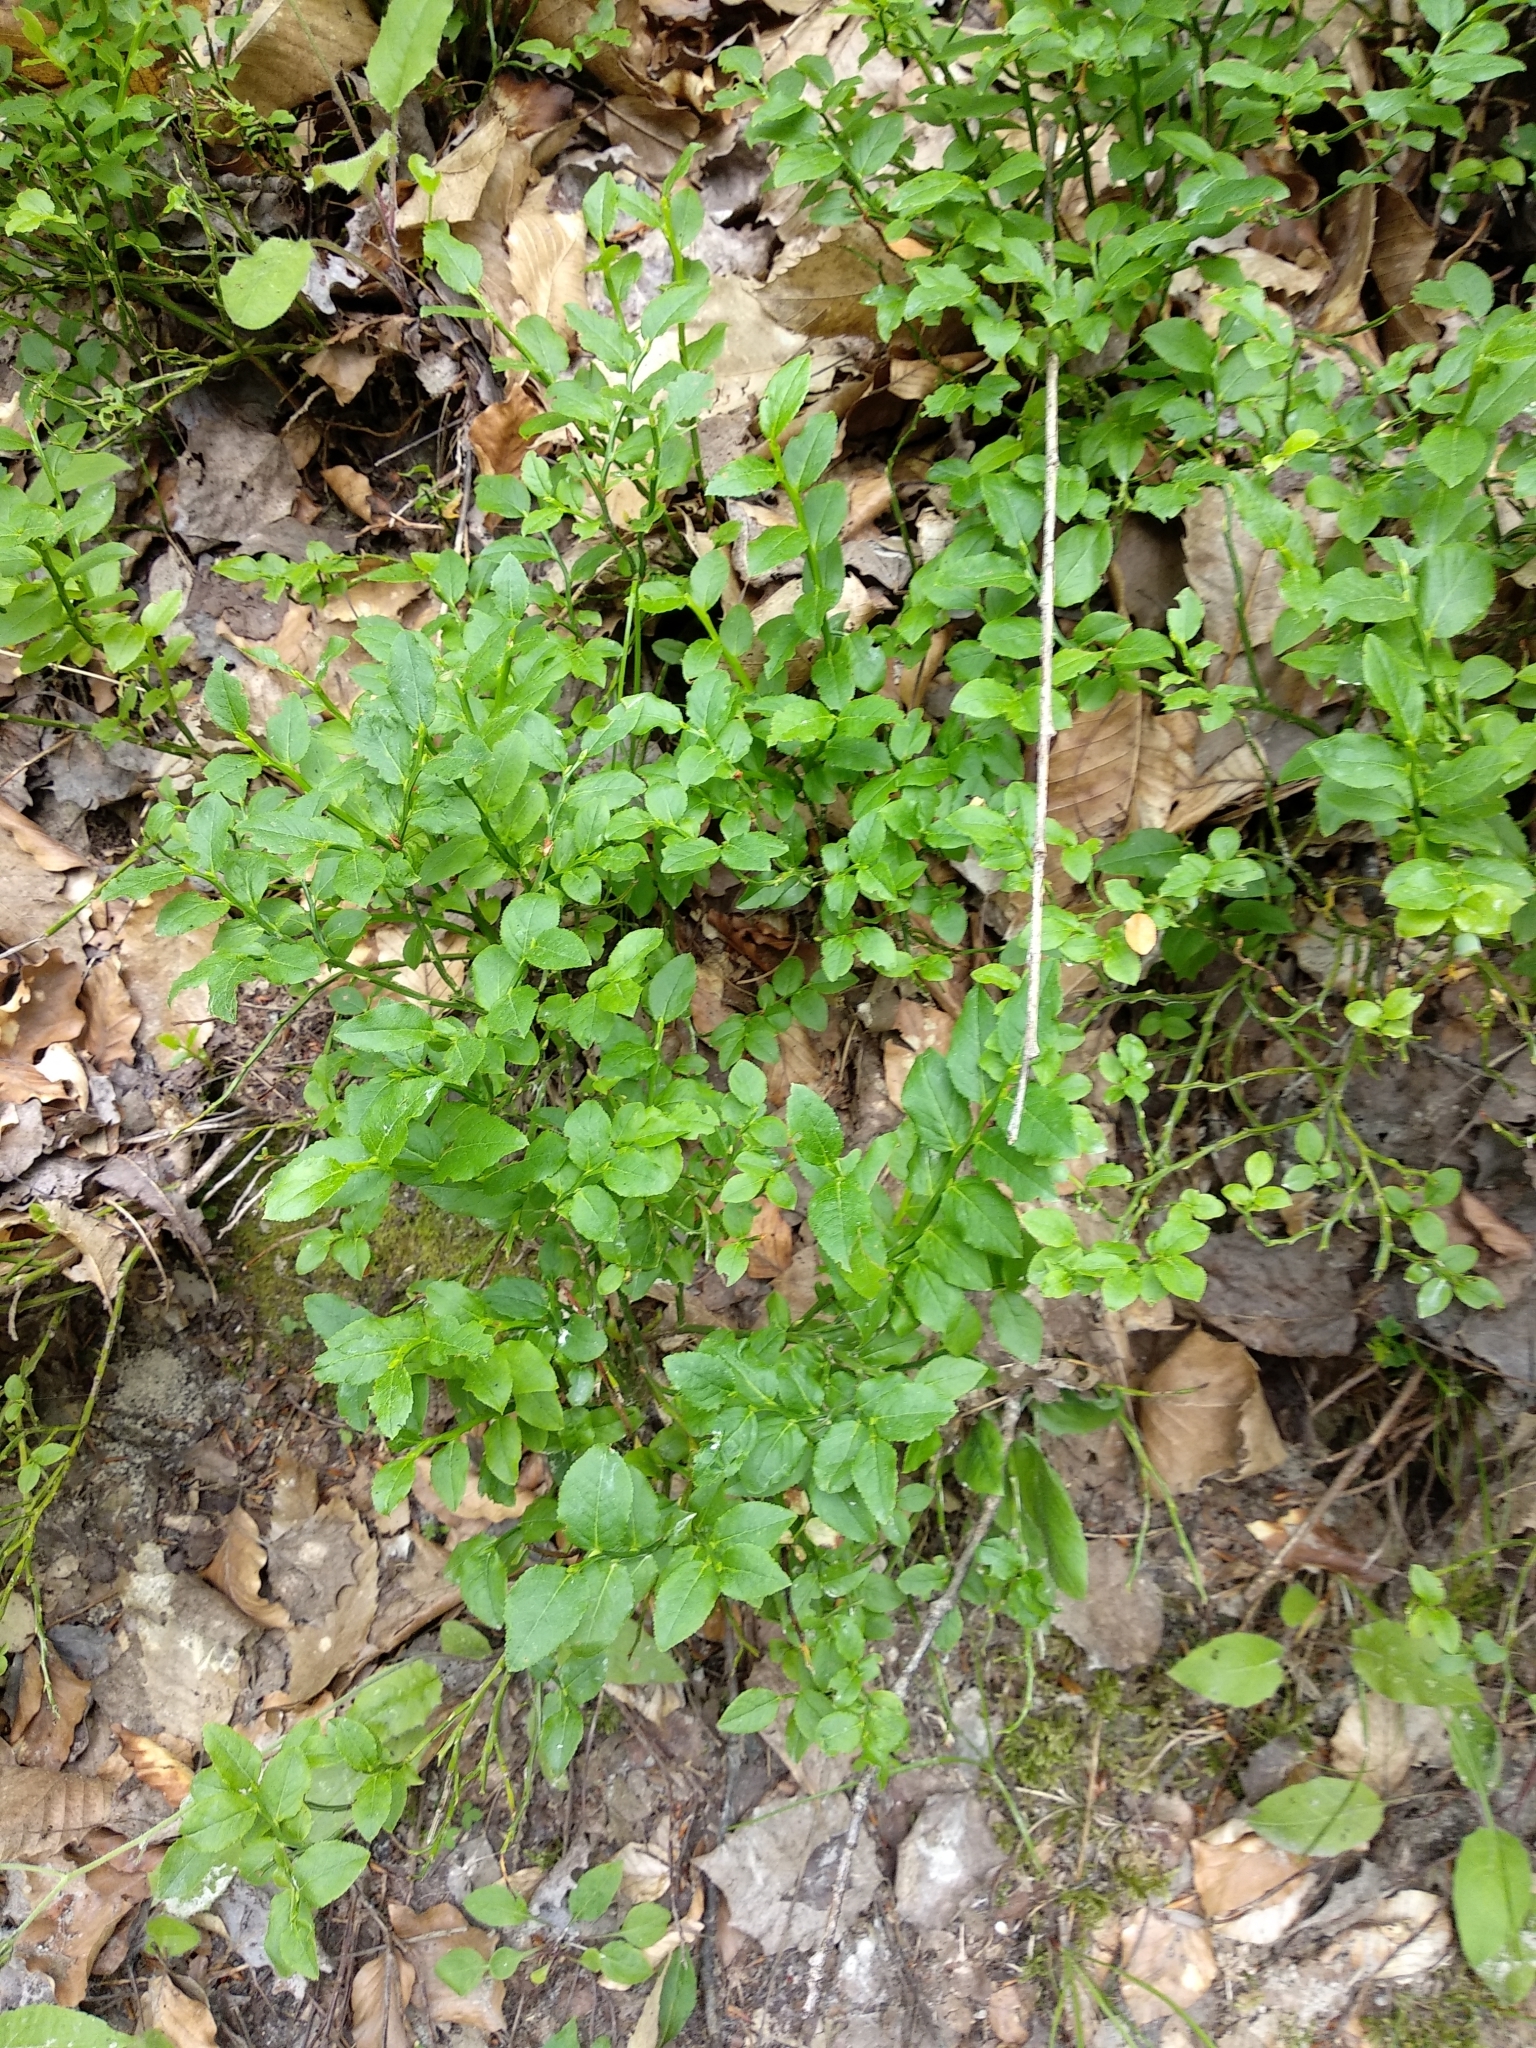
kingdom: Plantae
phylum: Tracheophyta
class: Magnoliopsida
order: Ericales
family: Ericaceae
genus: Vaccinium
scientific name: Vaccinium myrtillus
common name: Bilberry
